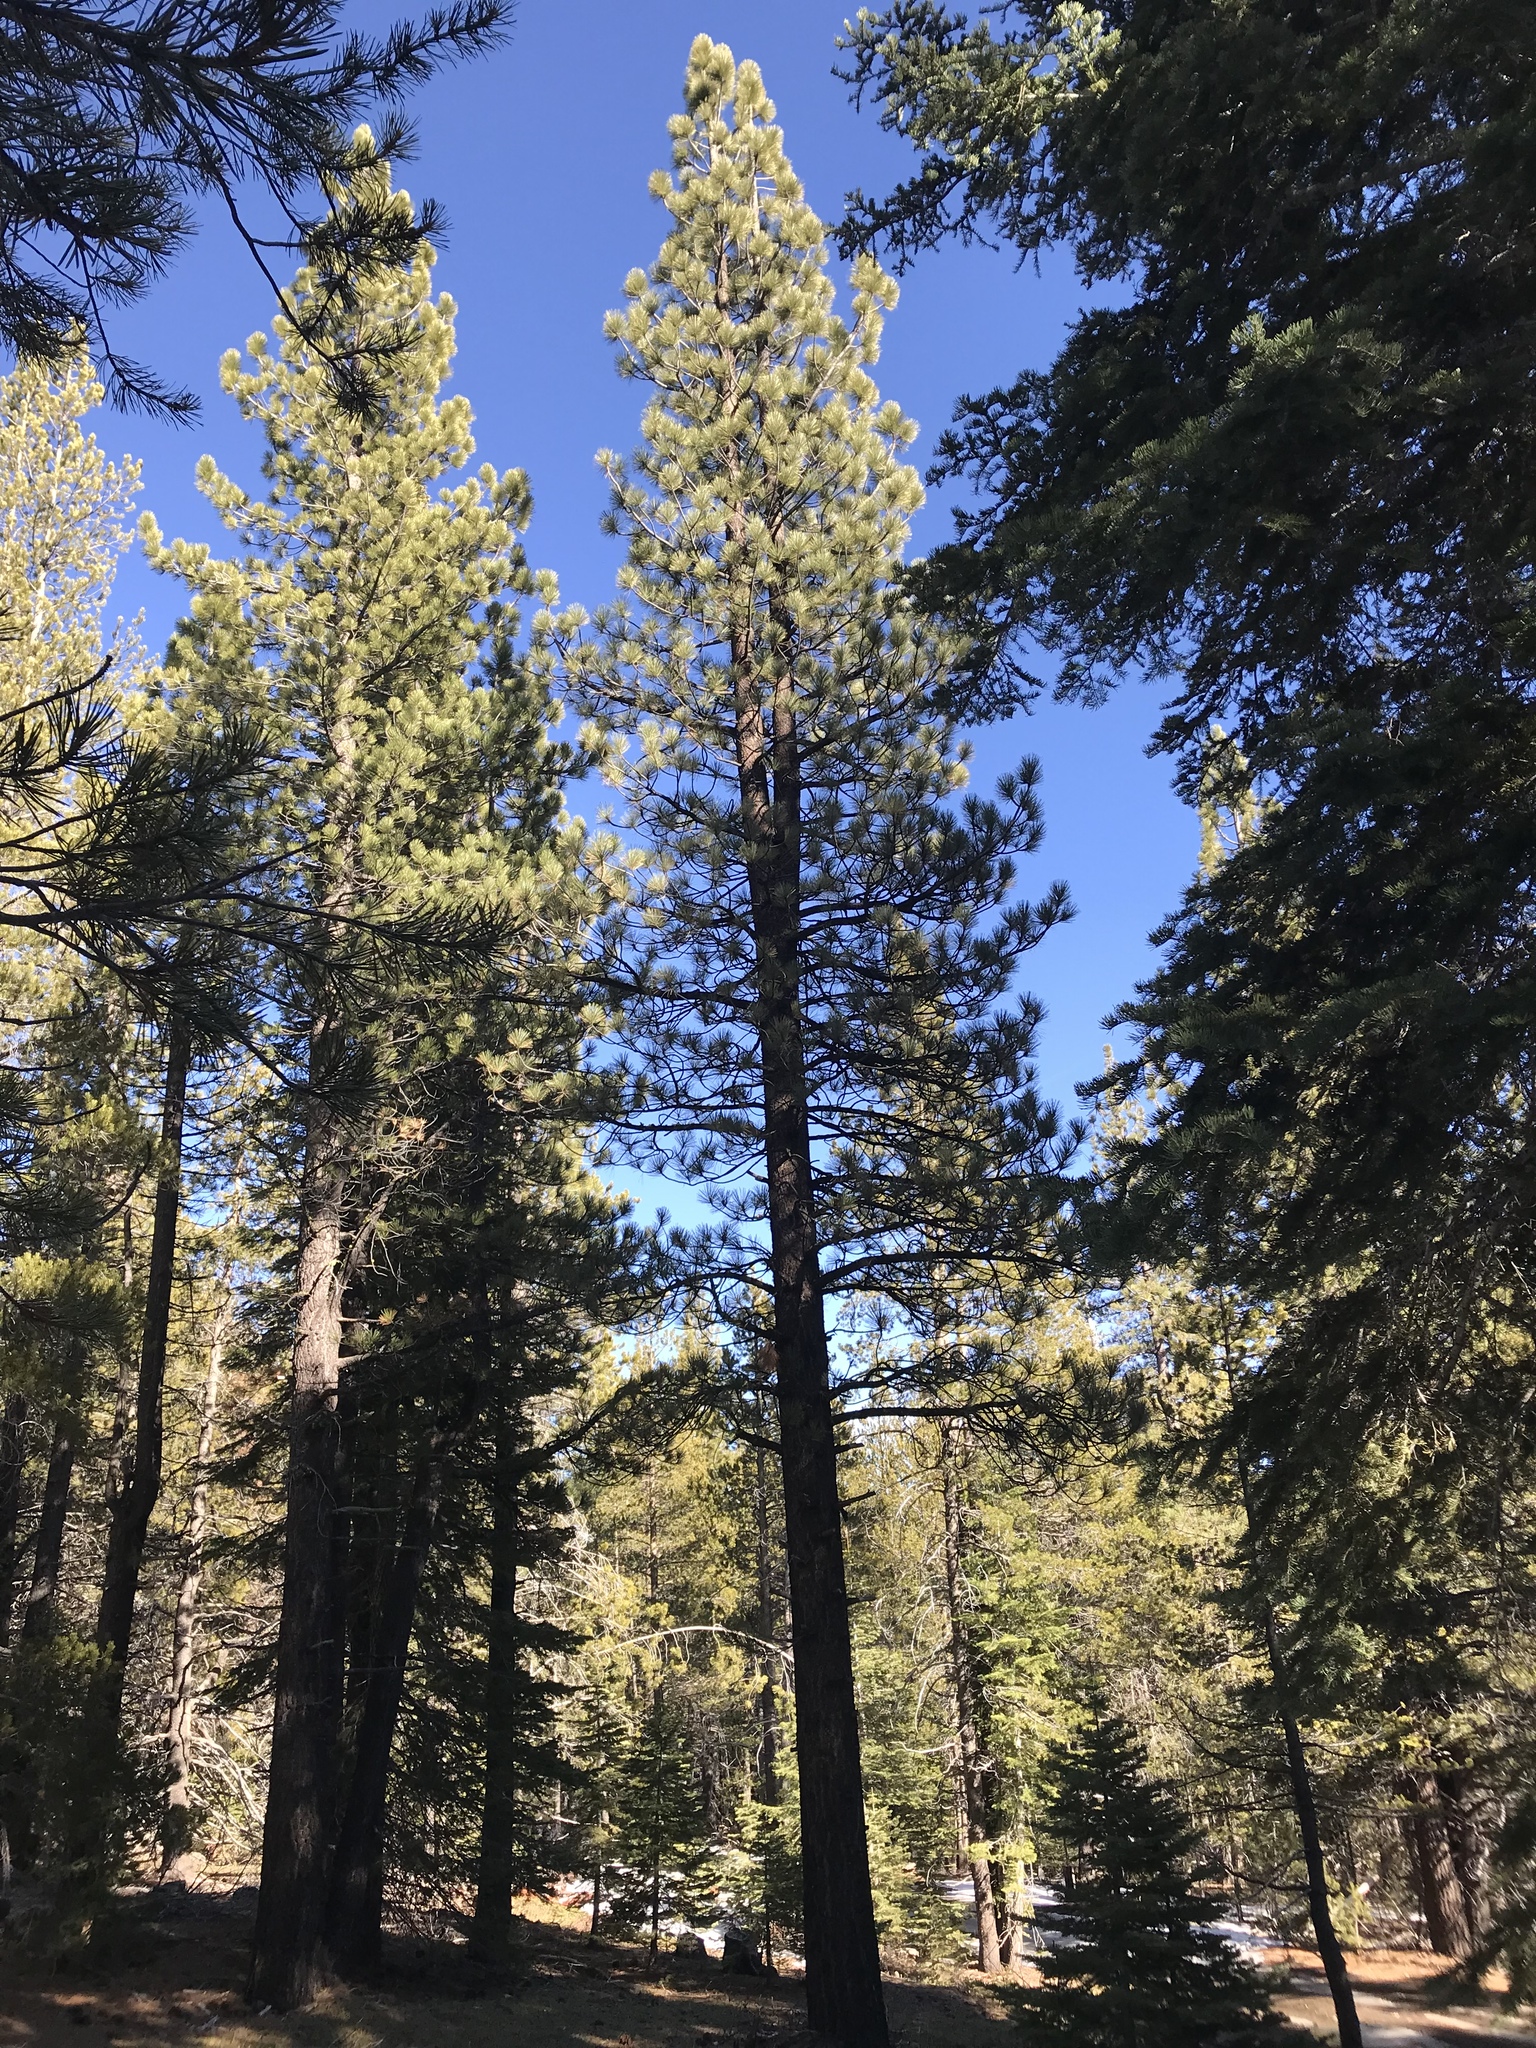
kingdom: Plantae
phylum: Tracheophyta
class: Pinopsida
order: Pinales
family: Pinaceae
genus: Pinus
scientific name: Pinus jeffreyi
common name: Jeffrey pine
